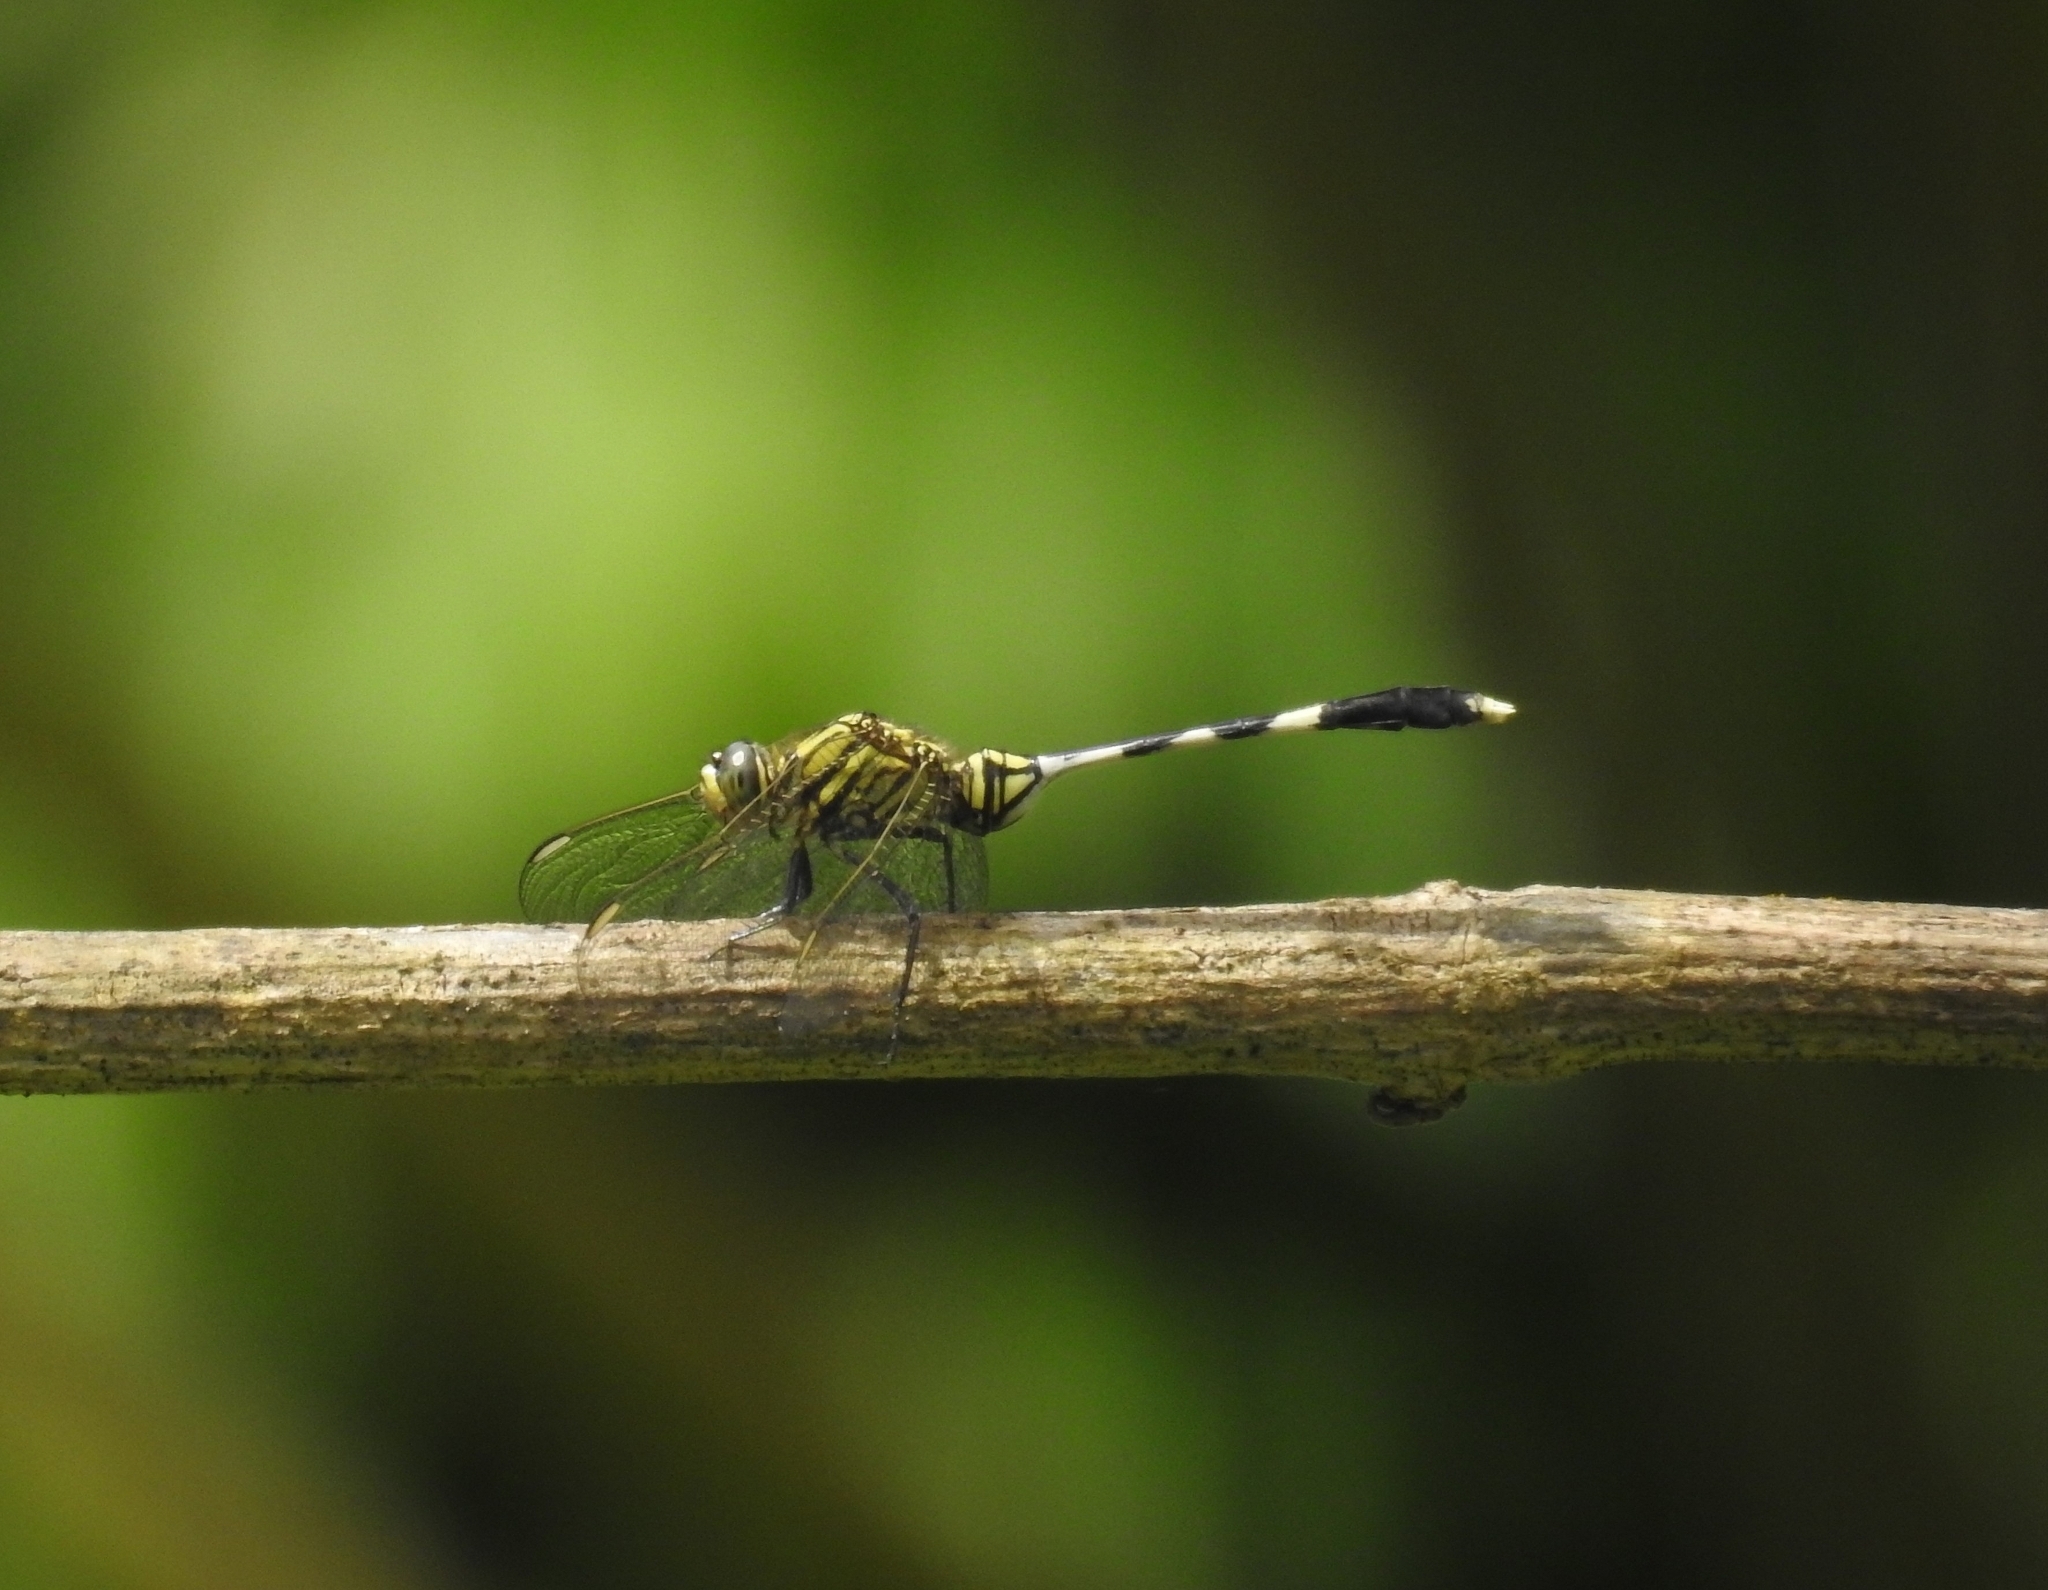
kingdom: Animalia
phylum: Arthropoda
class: Insecta
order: Odonata
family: Libellulidae
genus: Orthetrum
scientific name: Orthetrum sabina
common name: Slender skimmer
